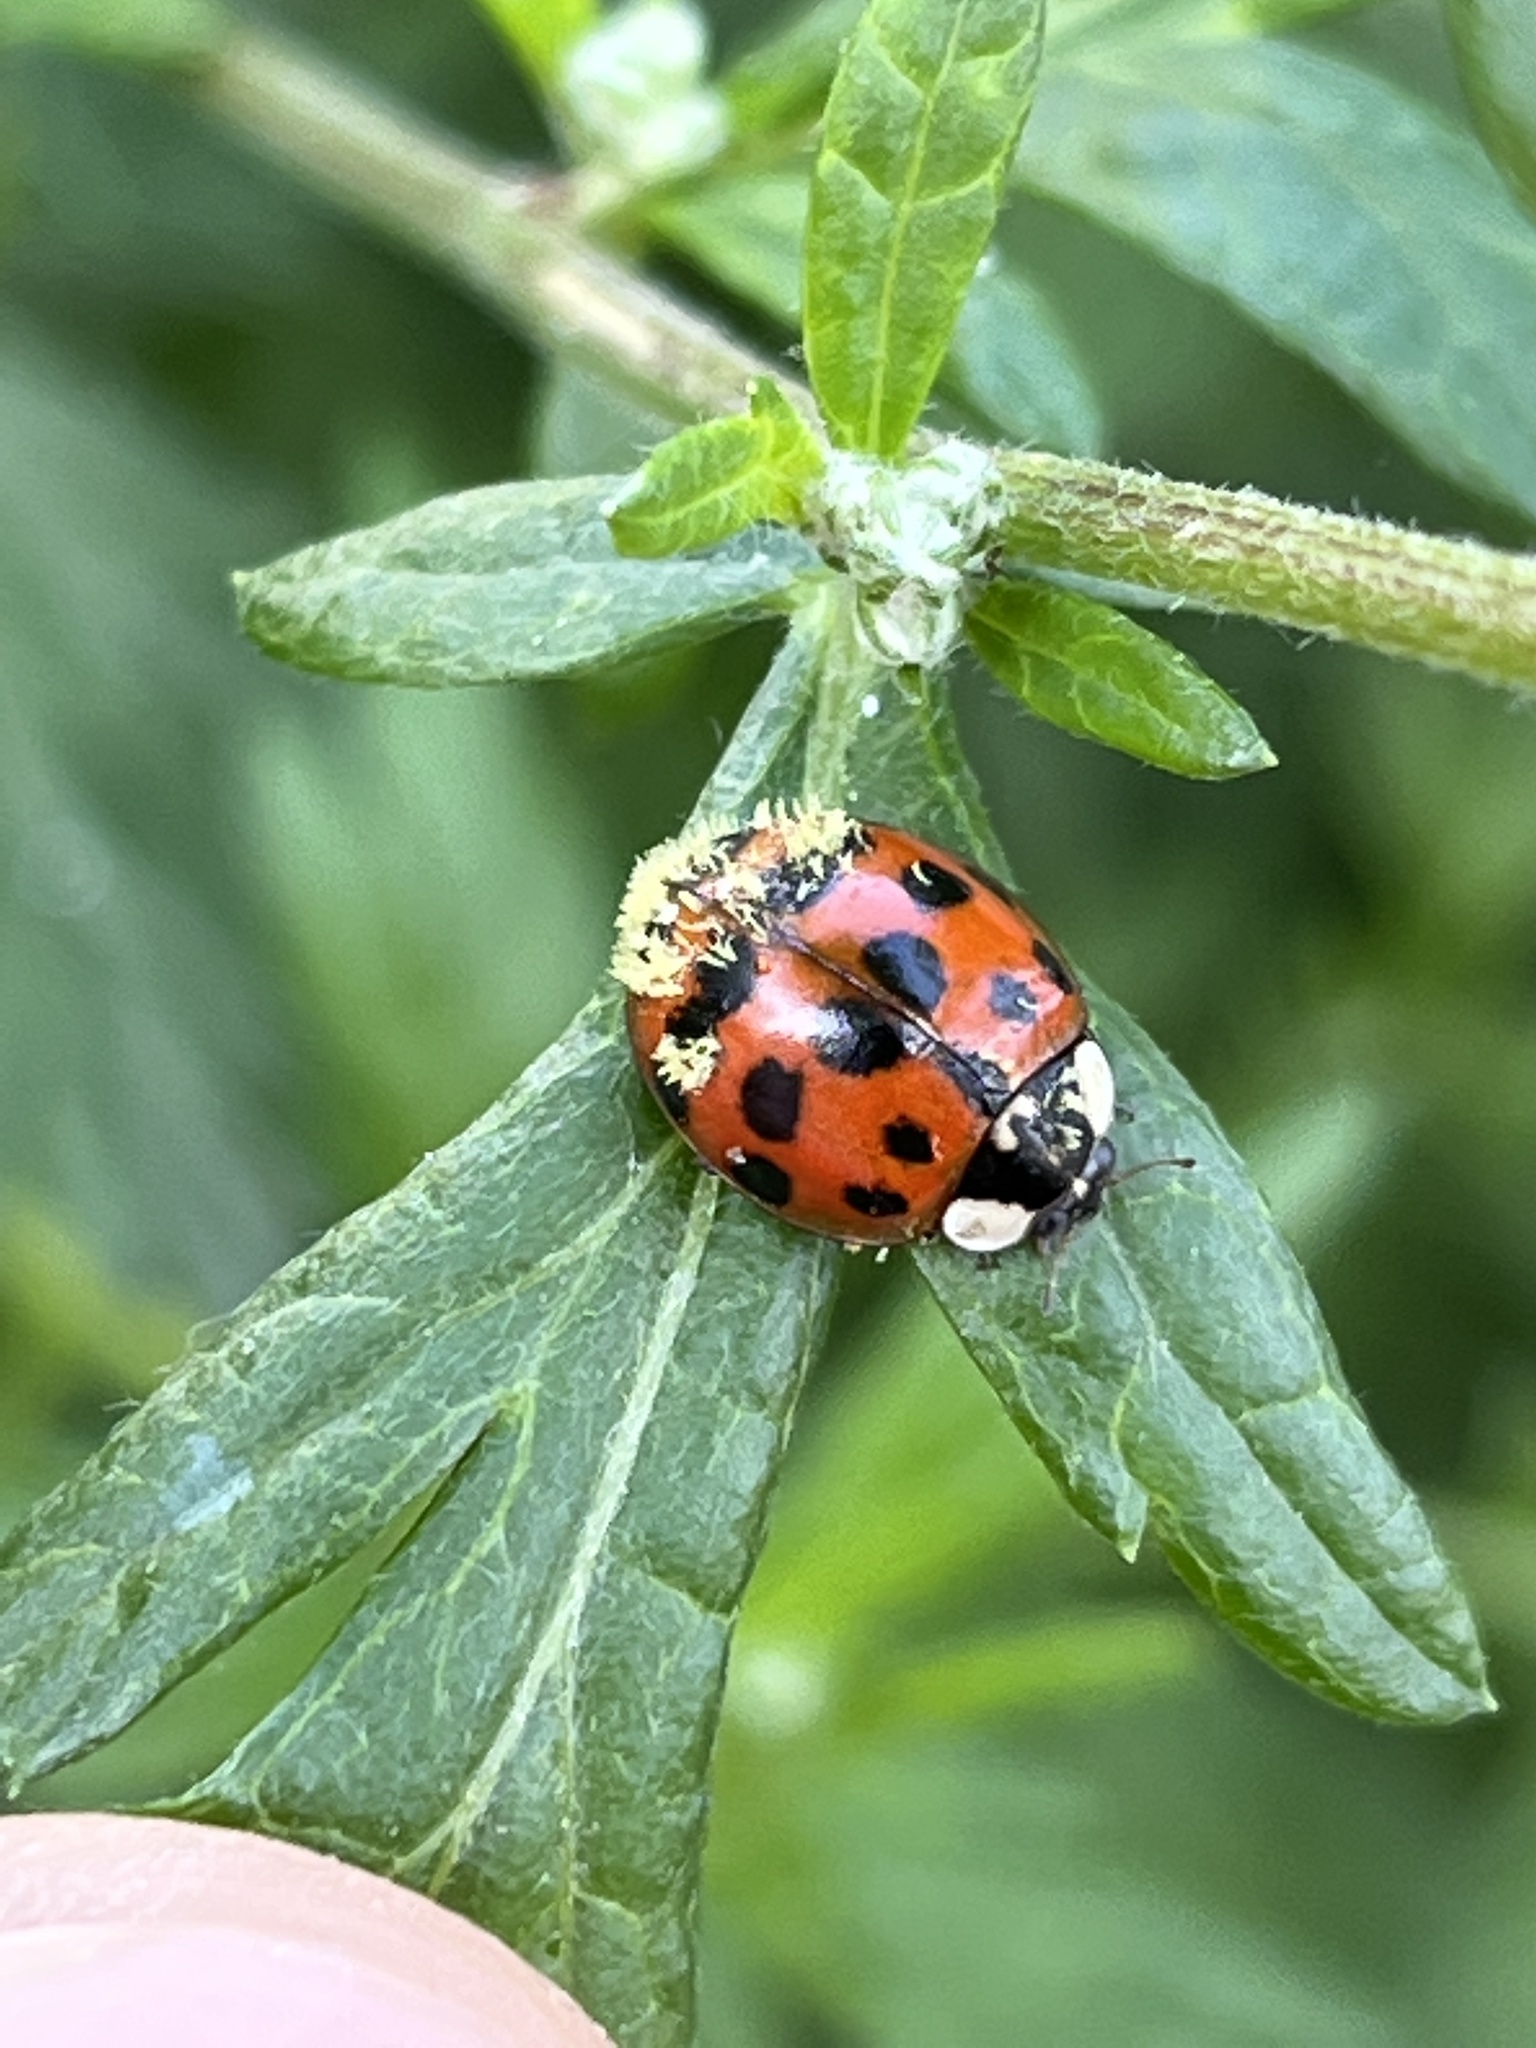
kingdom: Fungi
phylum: Ascomycota
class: Laboulbeniomycetes
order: Laboulbeniales
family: Laboulbeniaceae
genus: Hesperomyces
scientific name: Hesperomyces harmoniae
